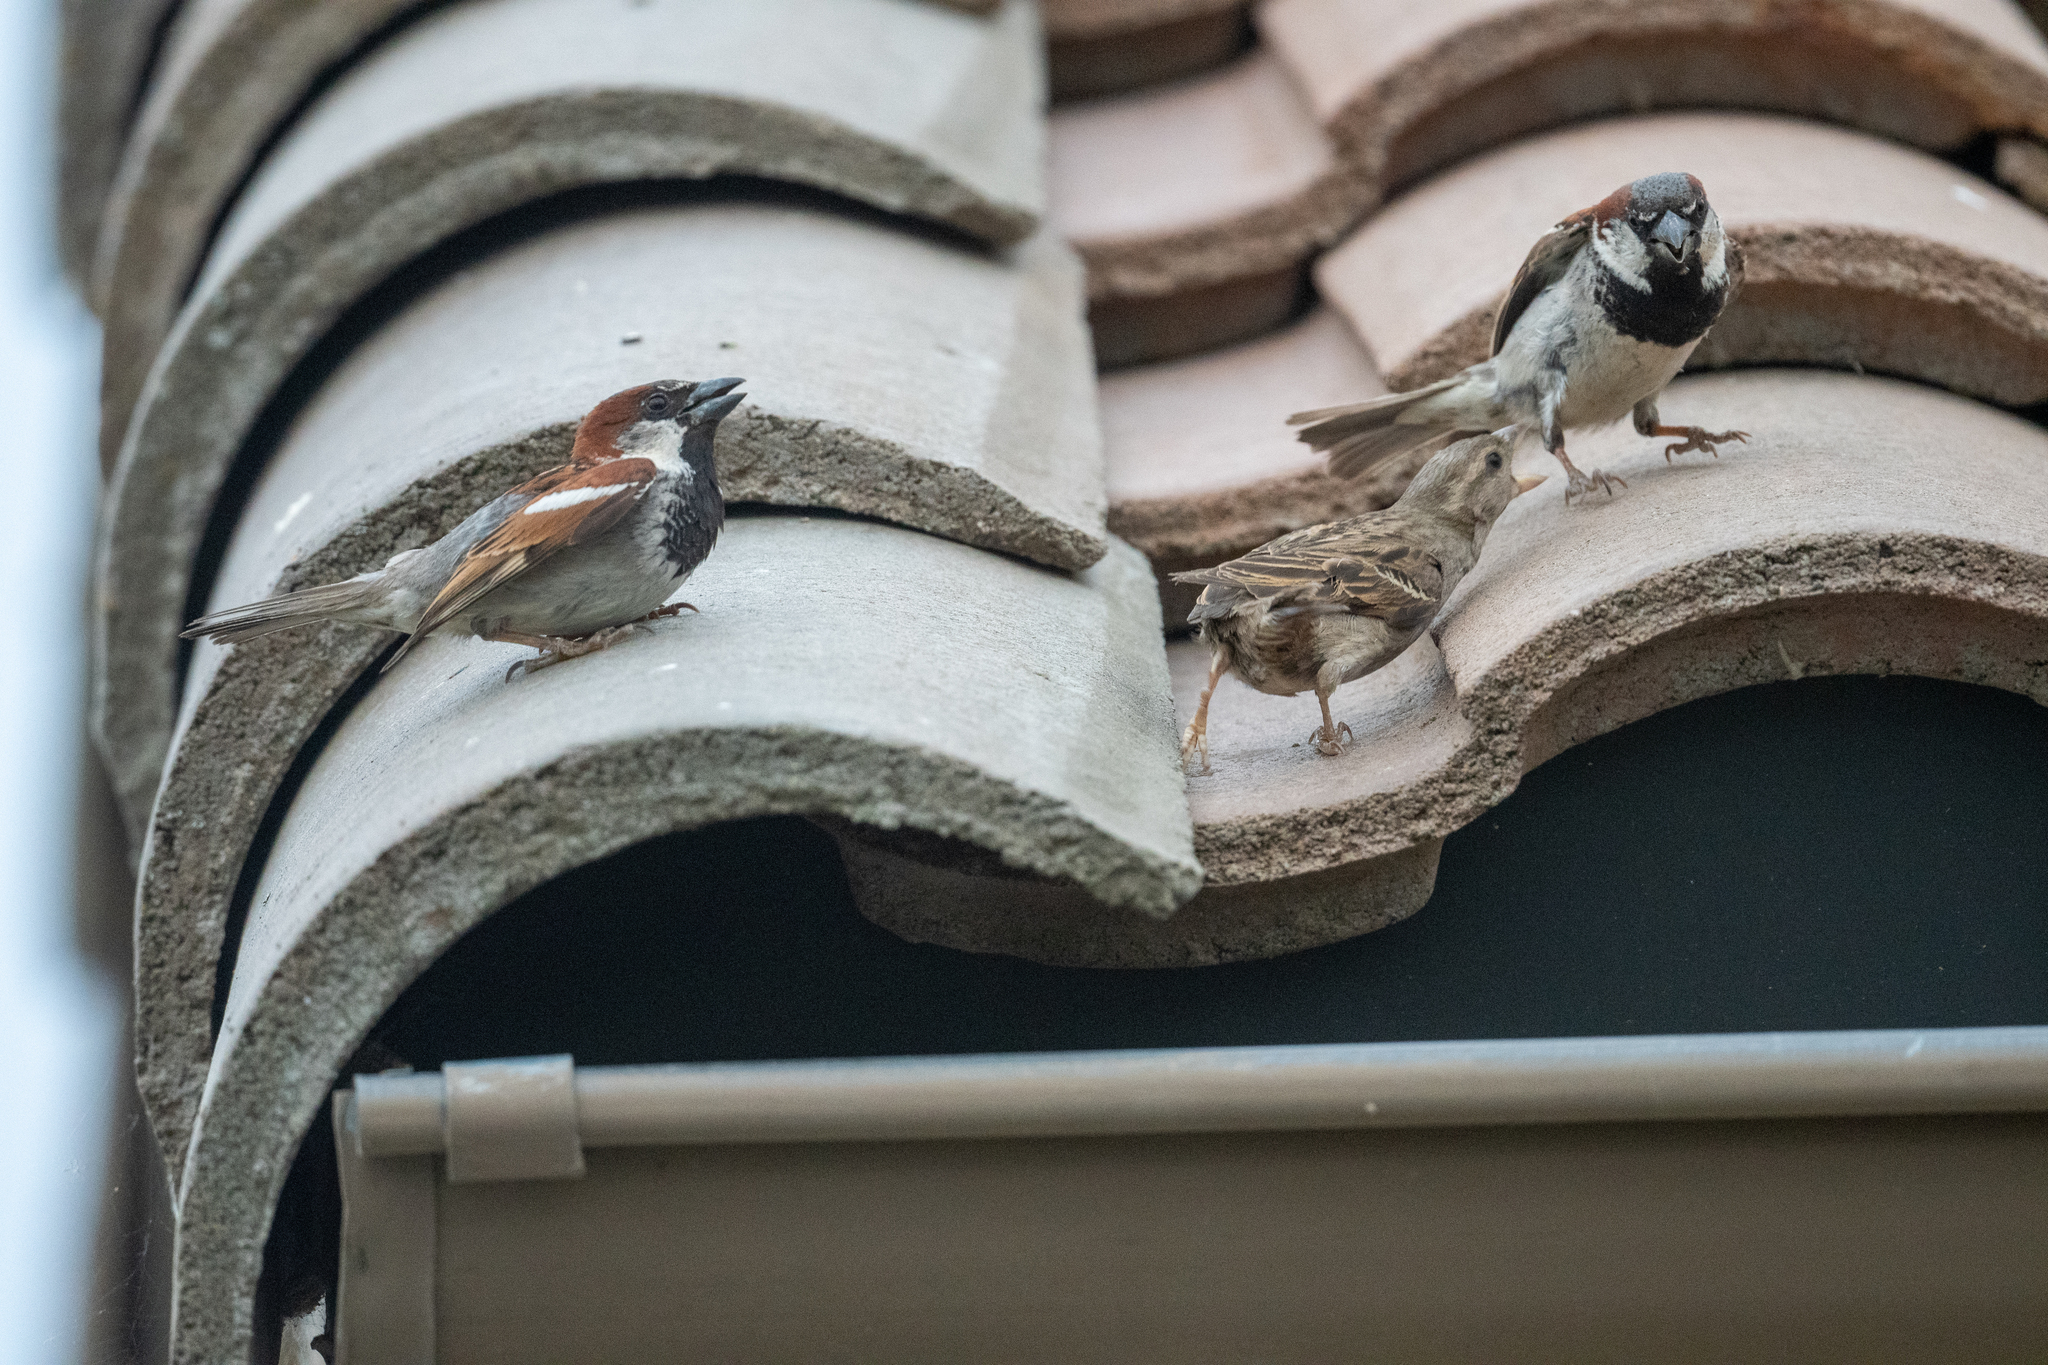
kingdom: Animalia
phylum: Chordata
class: Aves
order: Passeriformes
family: Passeridae
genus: Passer
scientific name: Passer domesticus
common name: House sparrow
